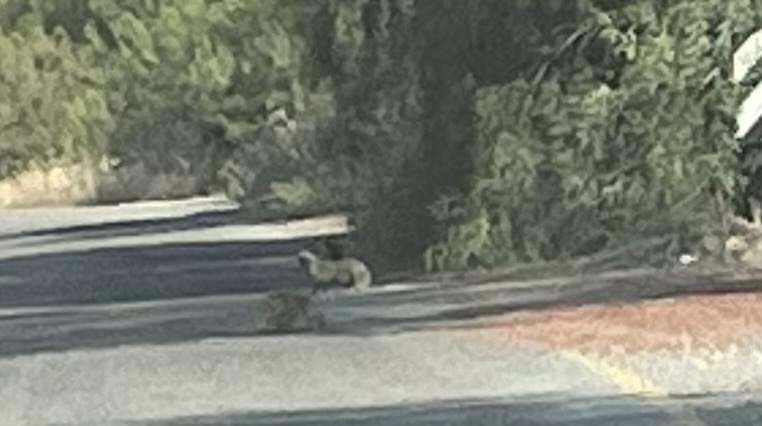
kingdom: Animalia
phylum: Chordata
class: Mammalia
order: Carnivora
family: Herpestidae
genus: Herpestes
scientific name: Herpestes ichneumon
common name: Egyptian mongoose
